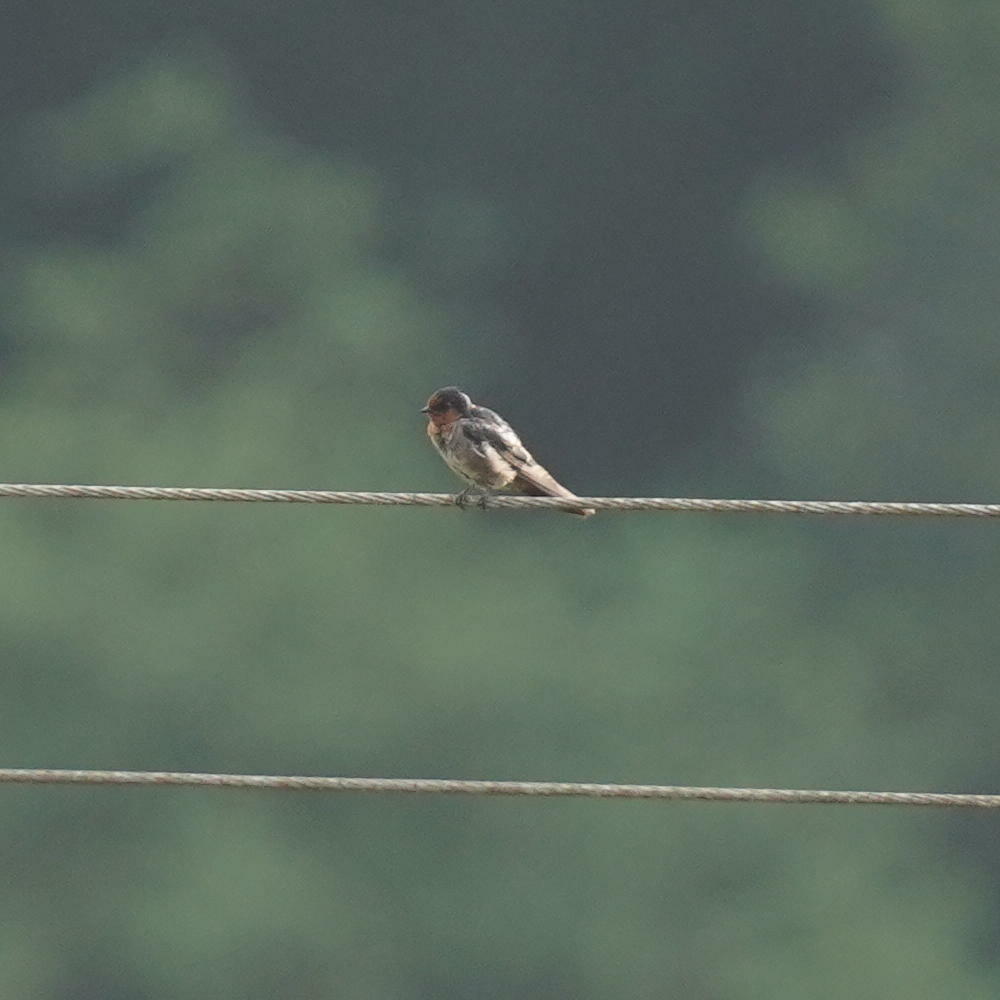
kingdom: Animalia
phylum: Chordata
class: Aves
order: Passeriformes
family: Hirundinidae
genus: Hirundo
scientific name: Hirundo domicola
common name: Hill swallow
